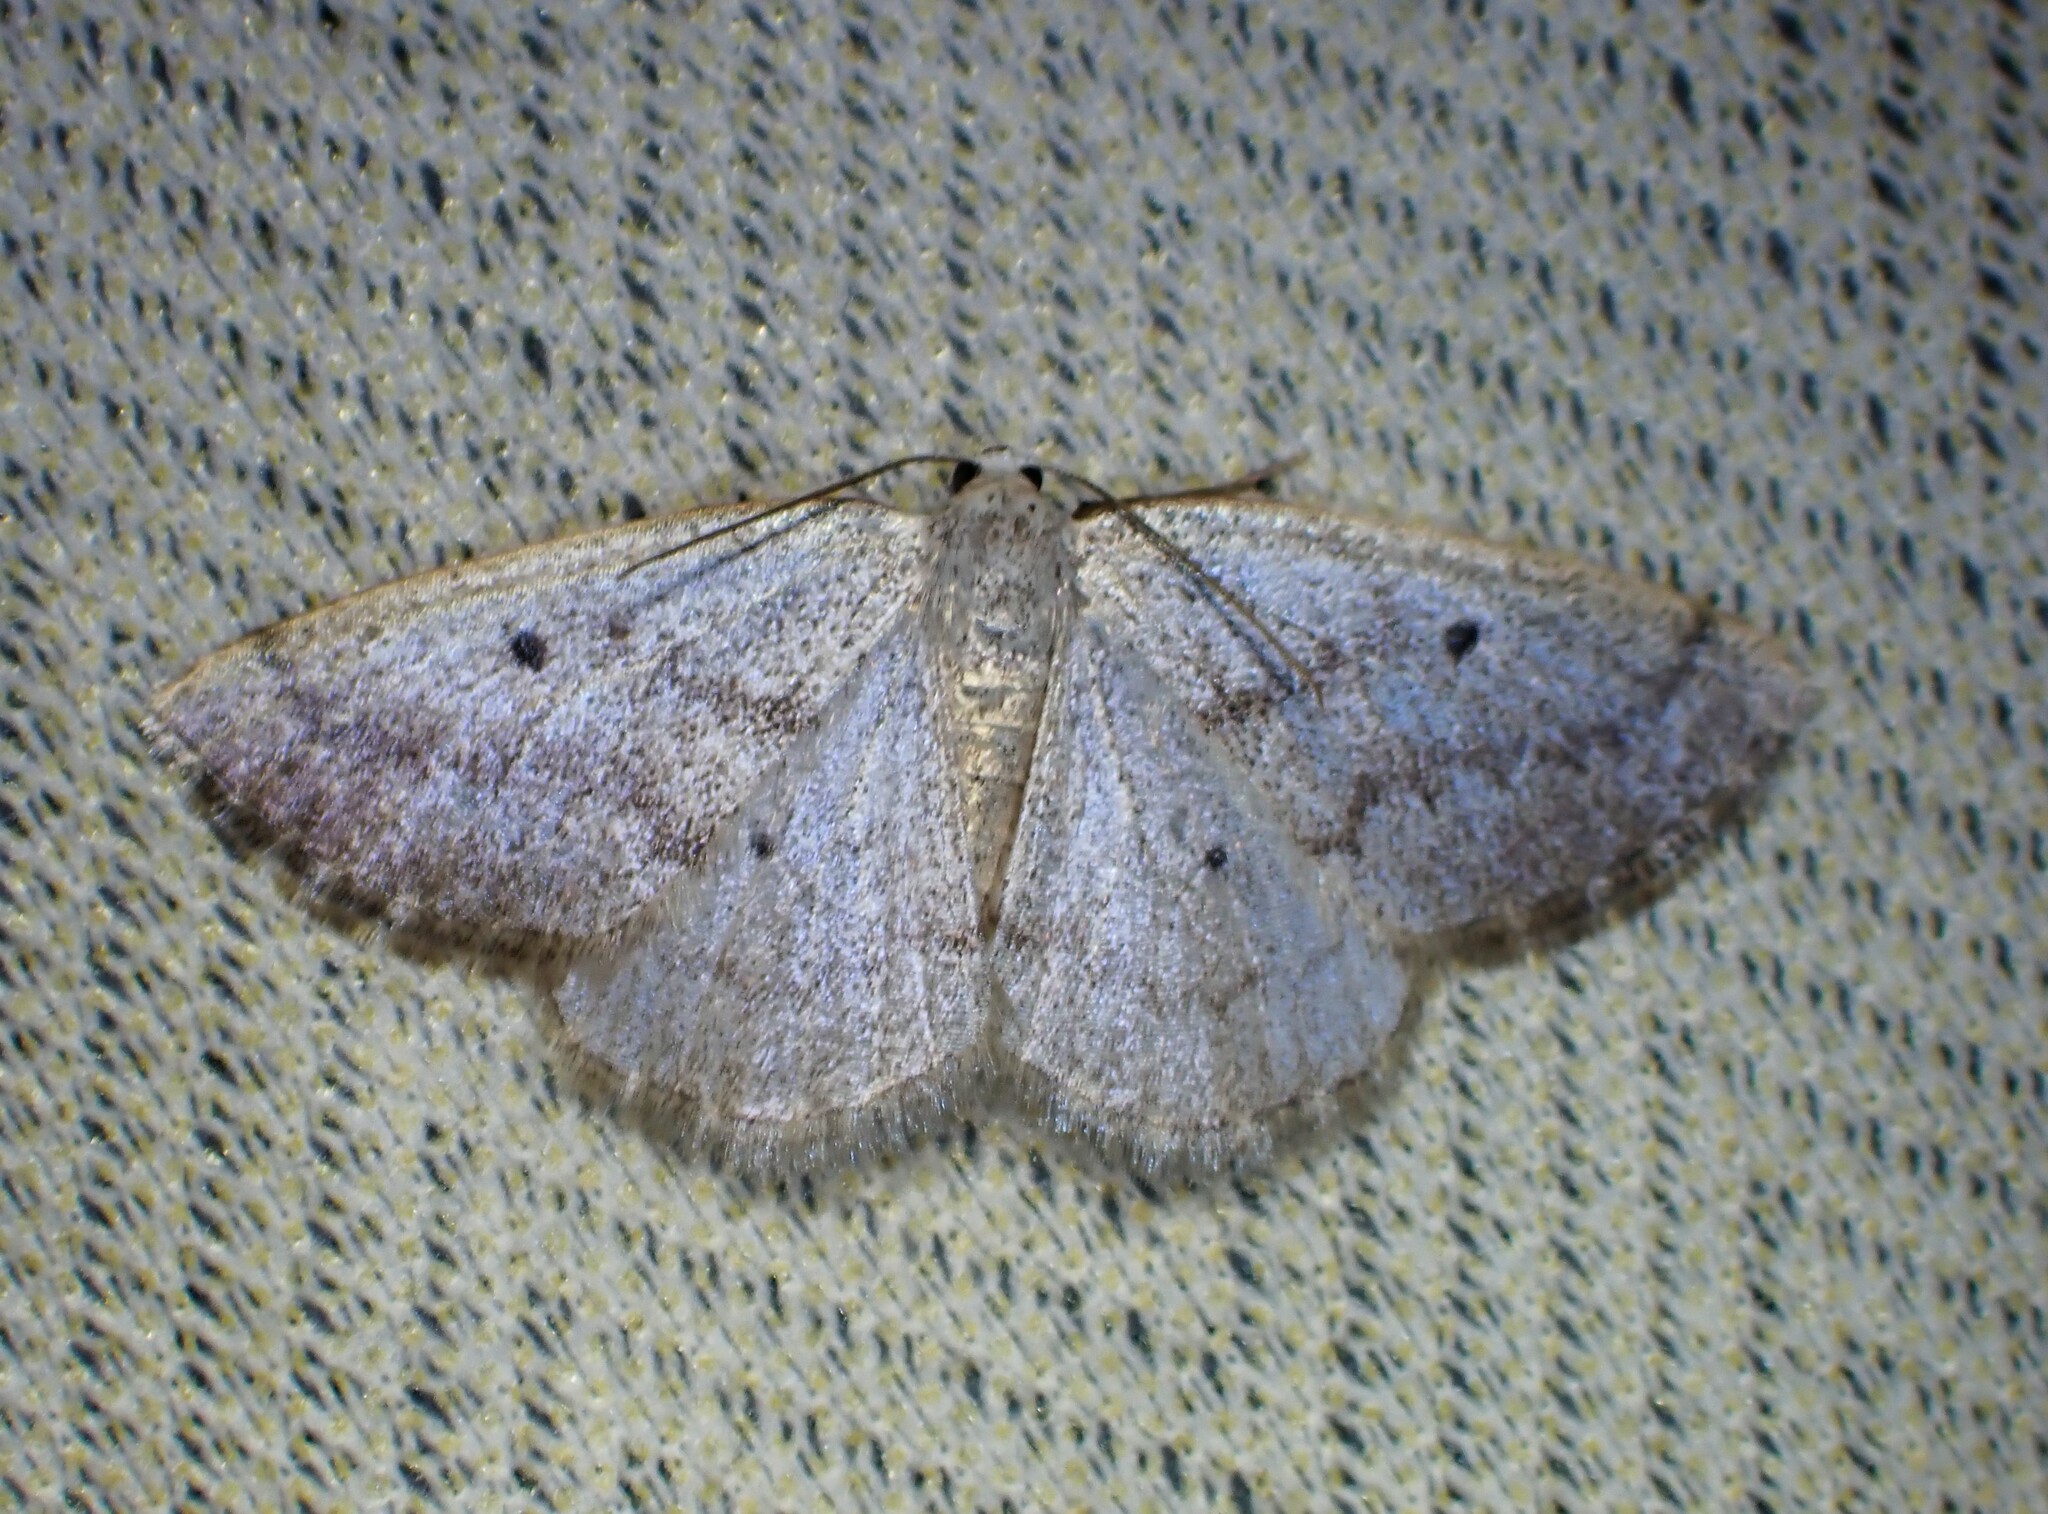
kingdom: Animalia
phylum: Arthropoda
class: Insecta
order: Lepidoptera
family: Geometridae
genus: Lomographa
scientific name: Lomographa glomeraria
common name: Gray spring moth
